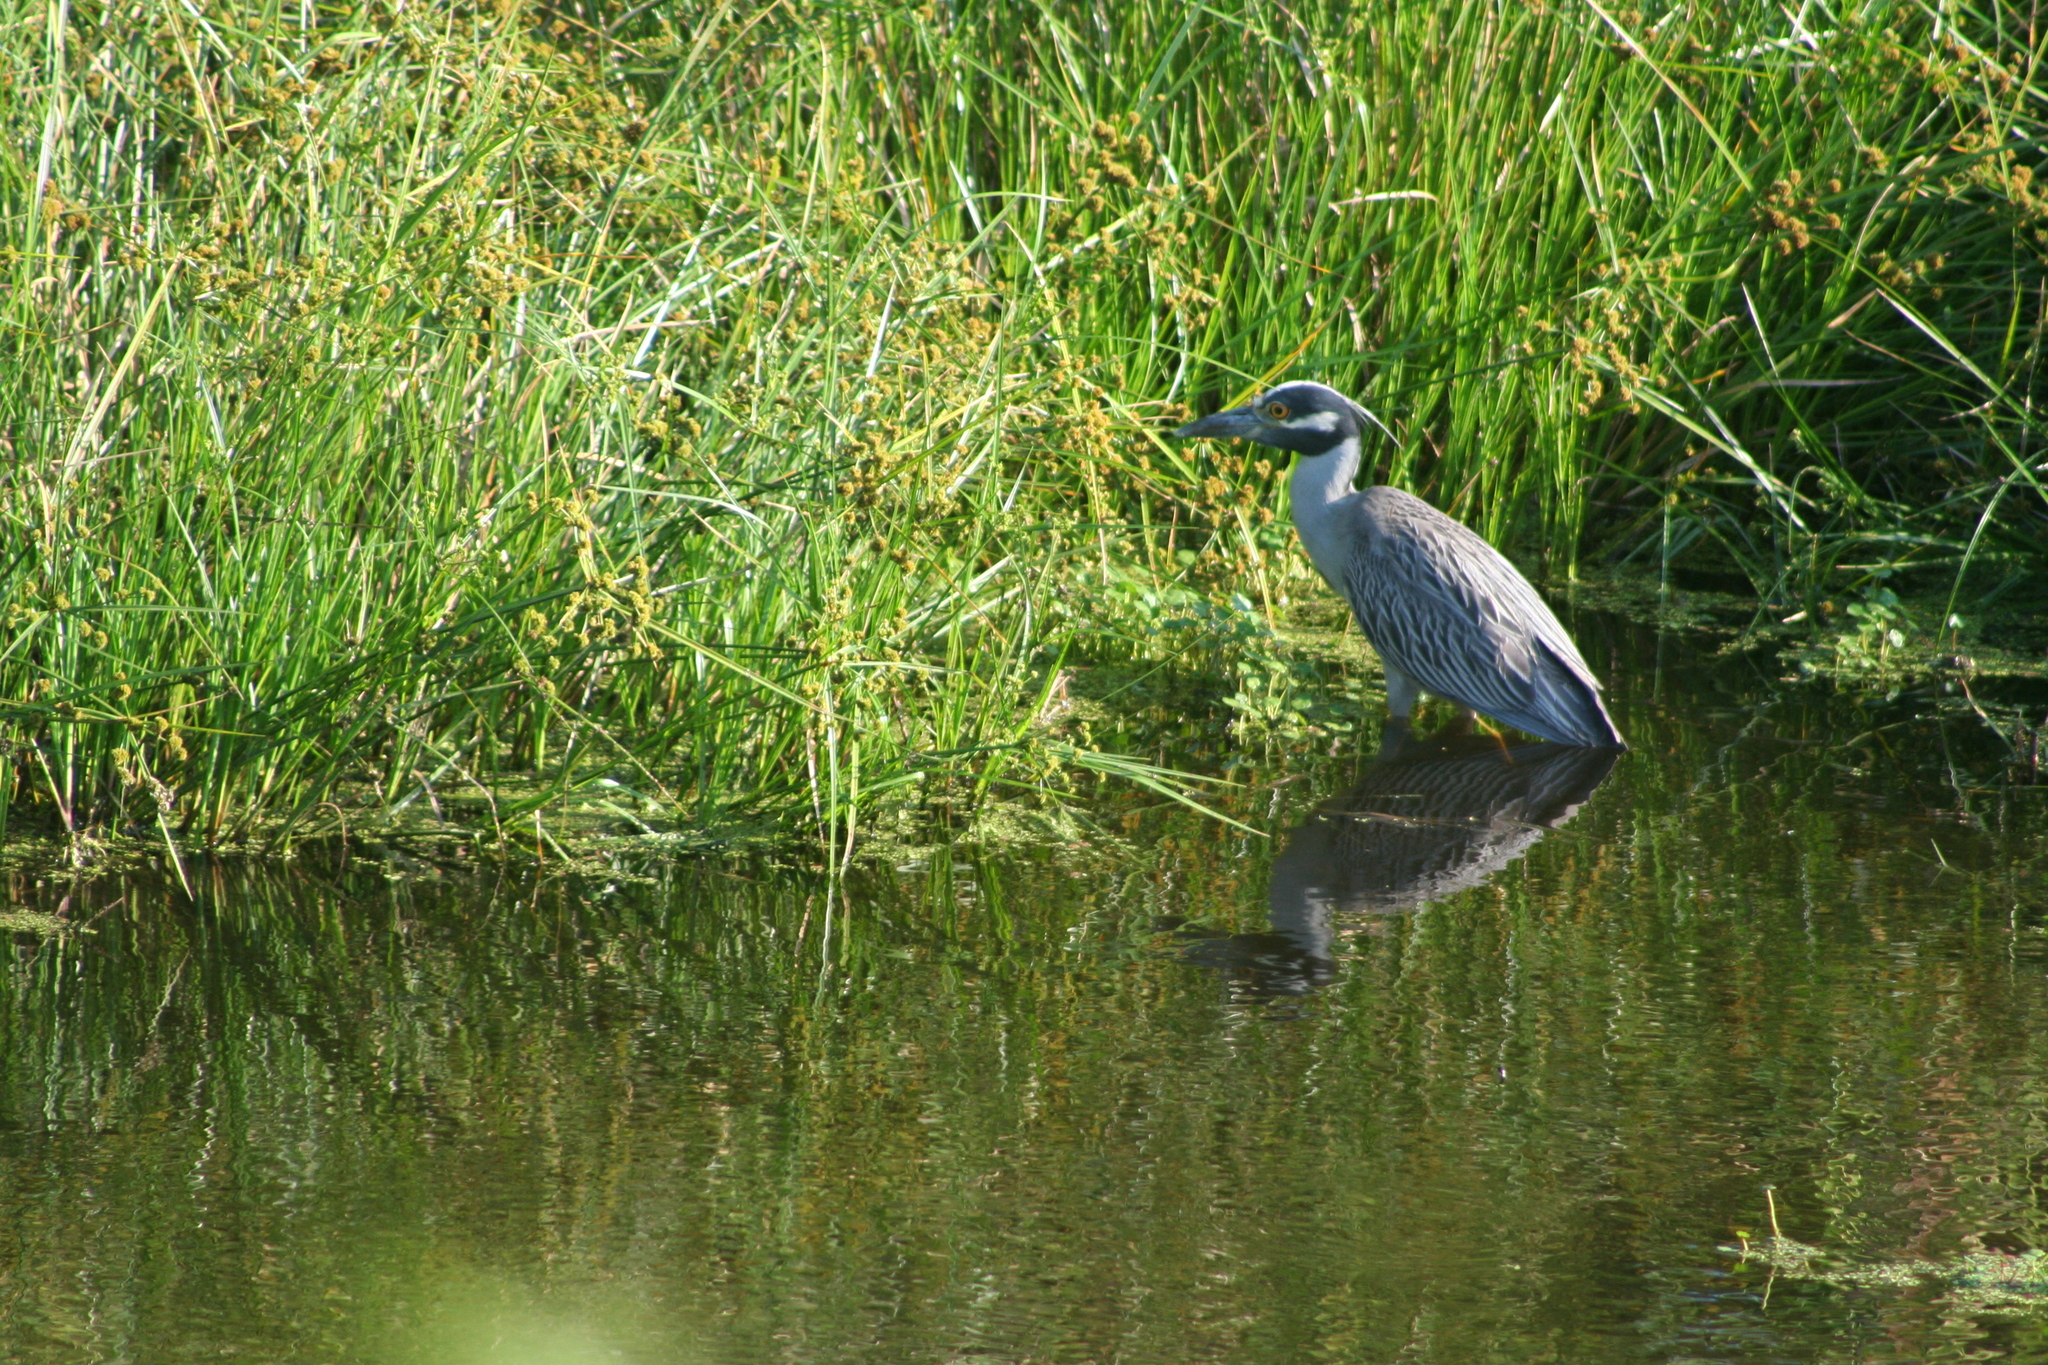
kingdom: Animalia
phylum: Chordata
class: Aves
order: Pelecaniformes
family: Ardeidae
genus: Nyctanassa
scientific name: Nyctanassa violacea
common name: Yellow-crowned night heron
